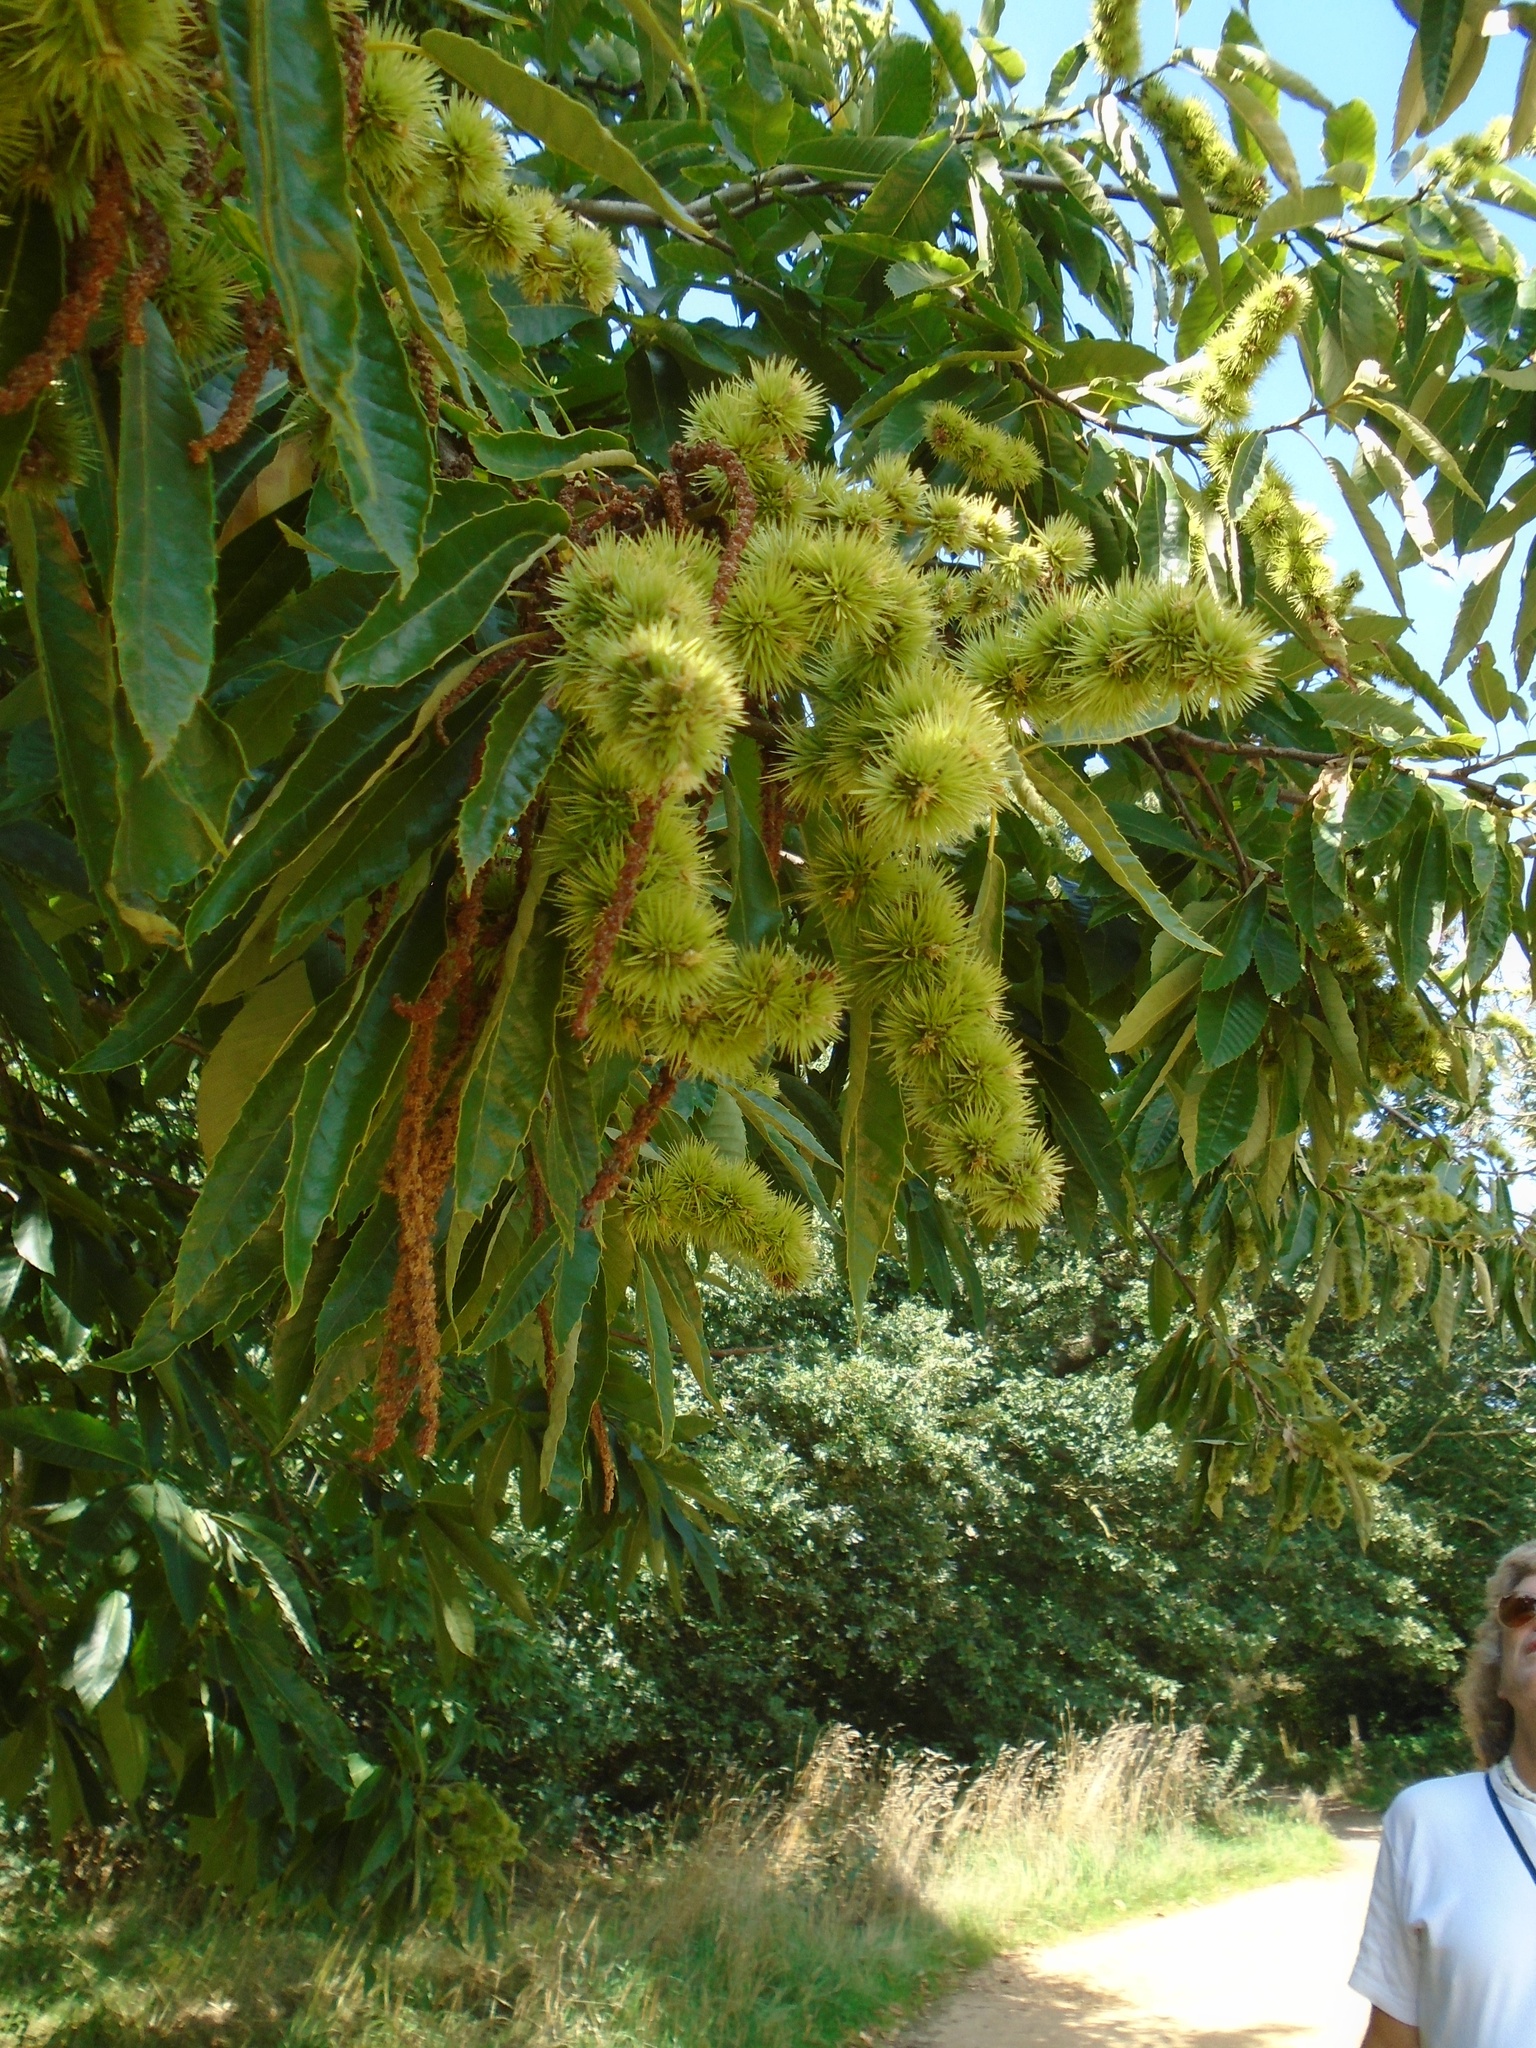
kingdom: Plantae
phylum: Tracheophyta
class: Magnoliopsida
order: Fagales
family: Fagaceae
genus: Castanea
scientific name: Castanea sativa
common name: Sweet chestnut
